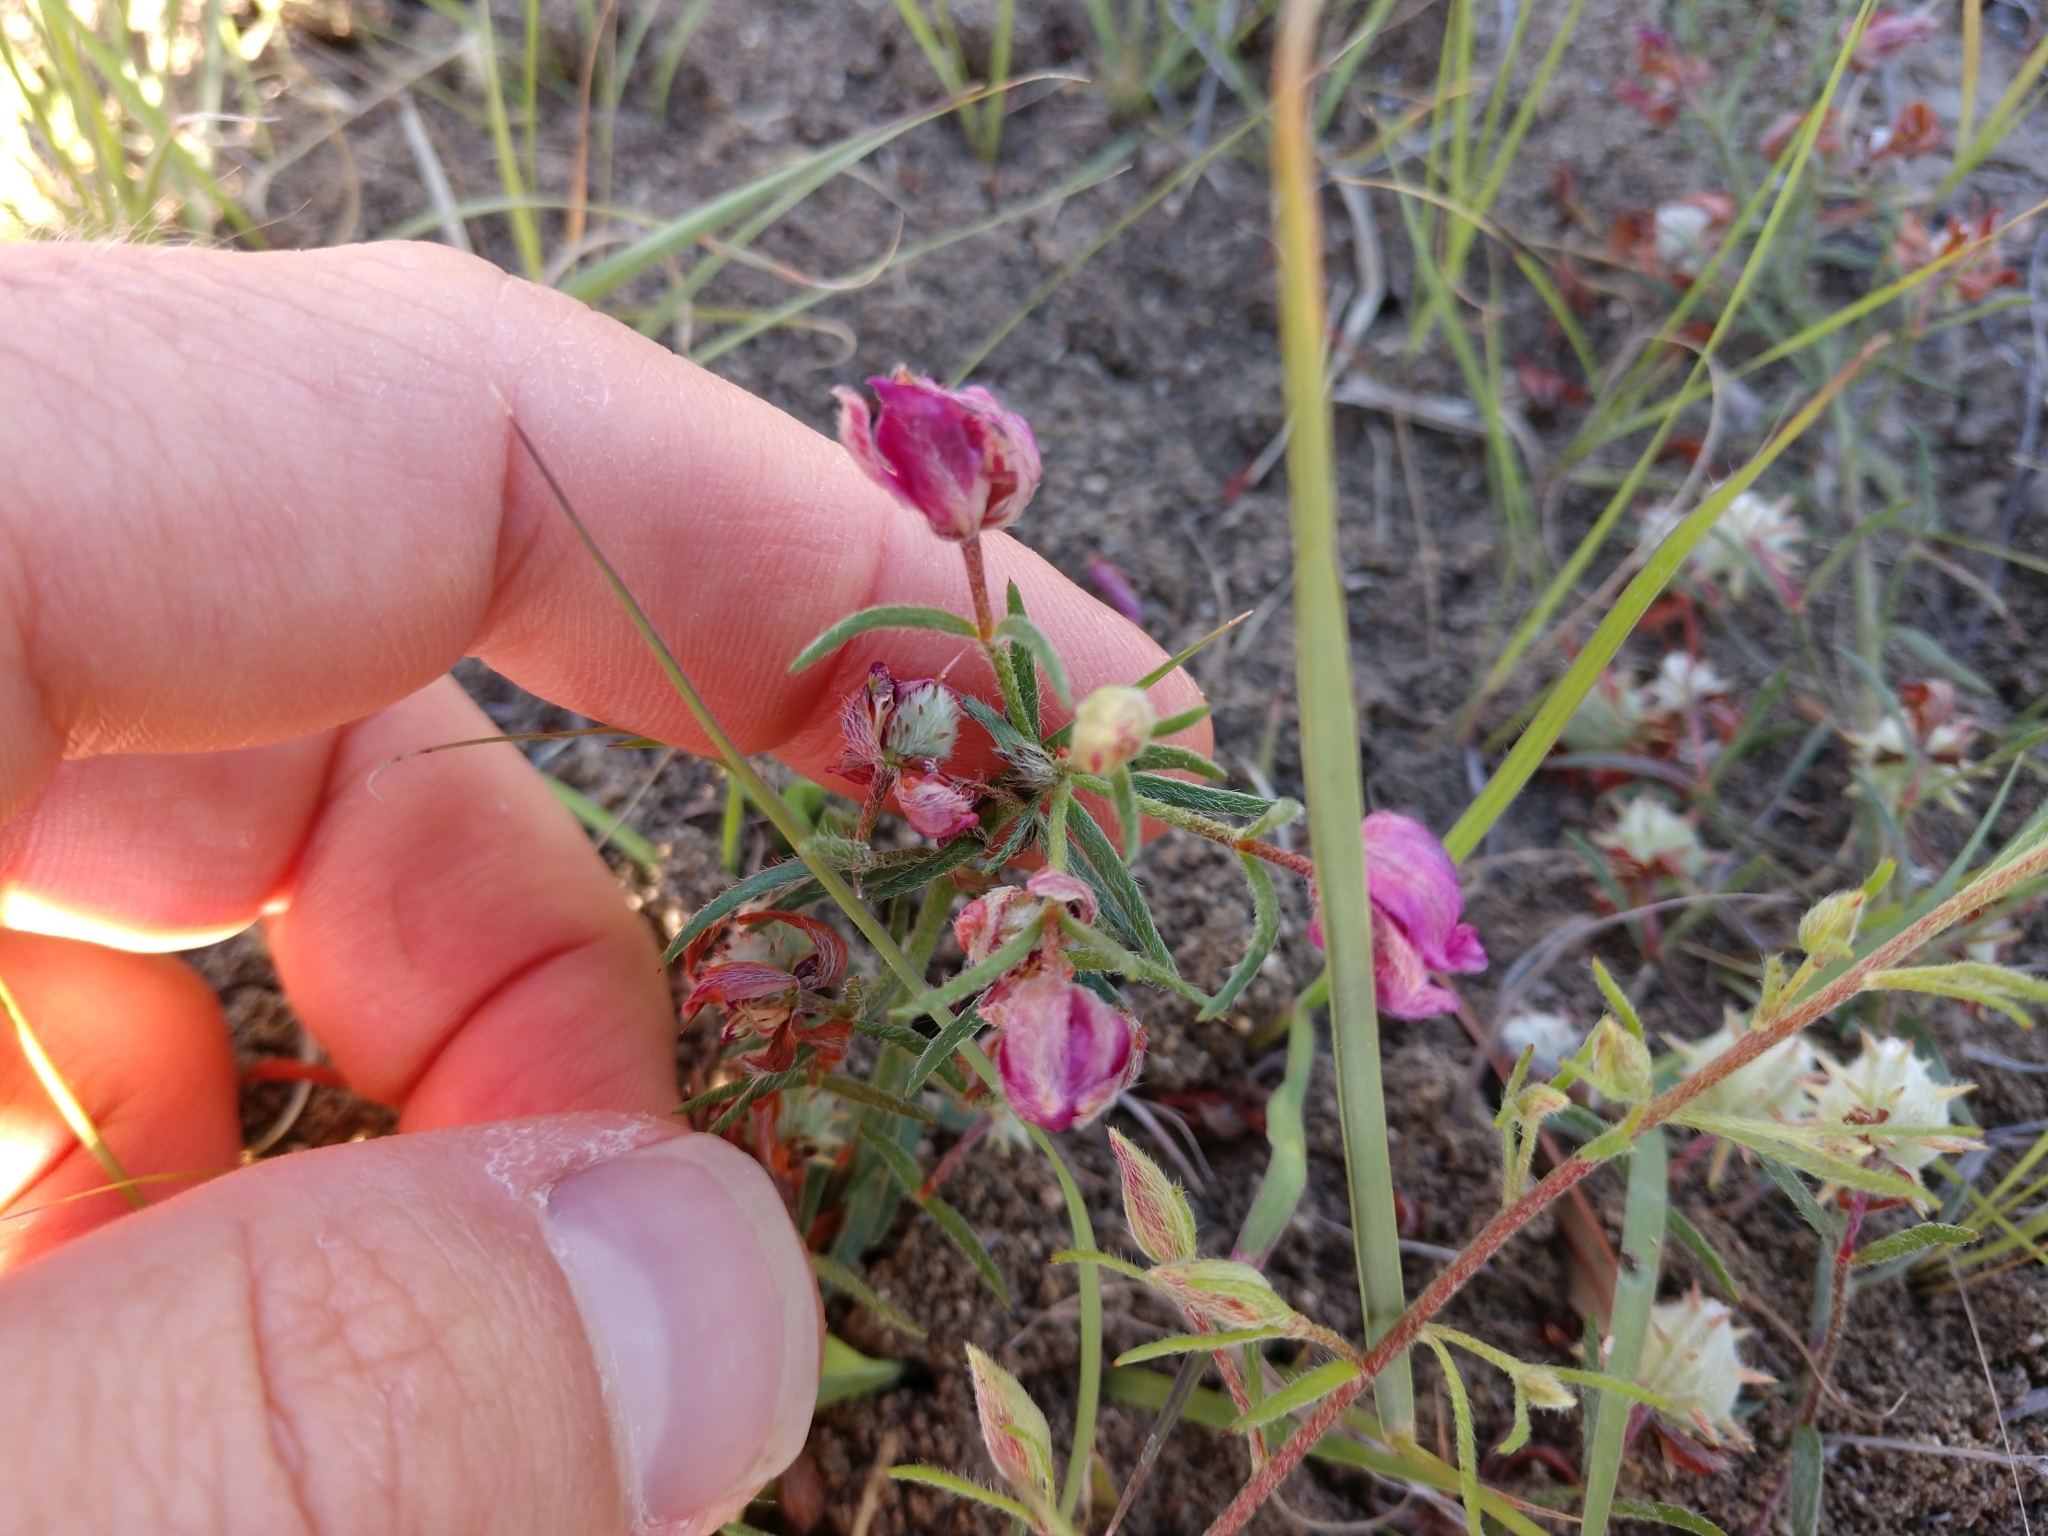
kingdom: Plantae
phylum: Tracheophyta
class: Magnoliopsida
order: Zygophyllales
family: Krameriaceae
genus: Krameria
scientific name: Krameria lanceolata
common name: Ratany
